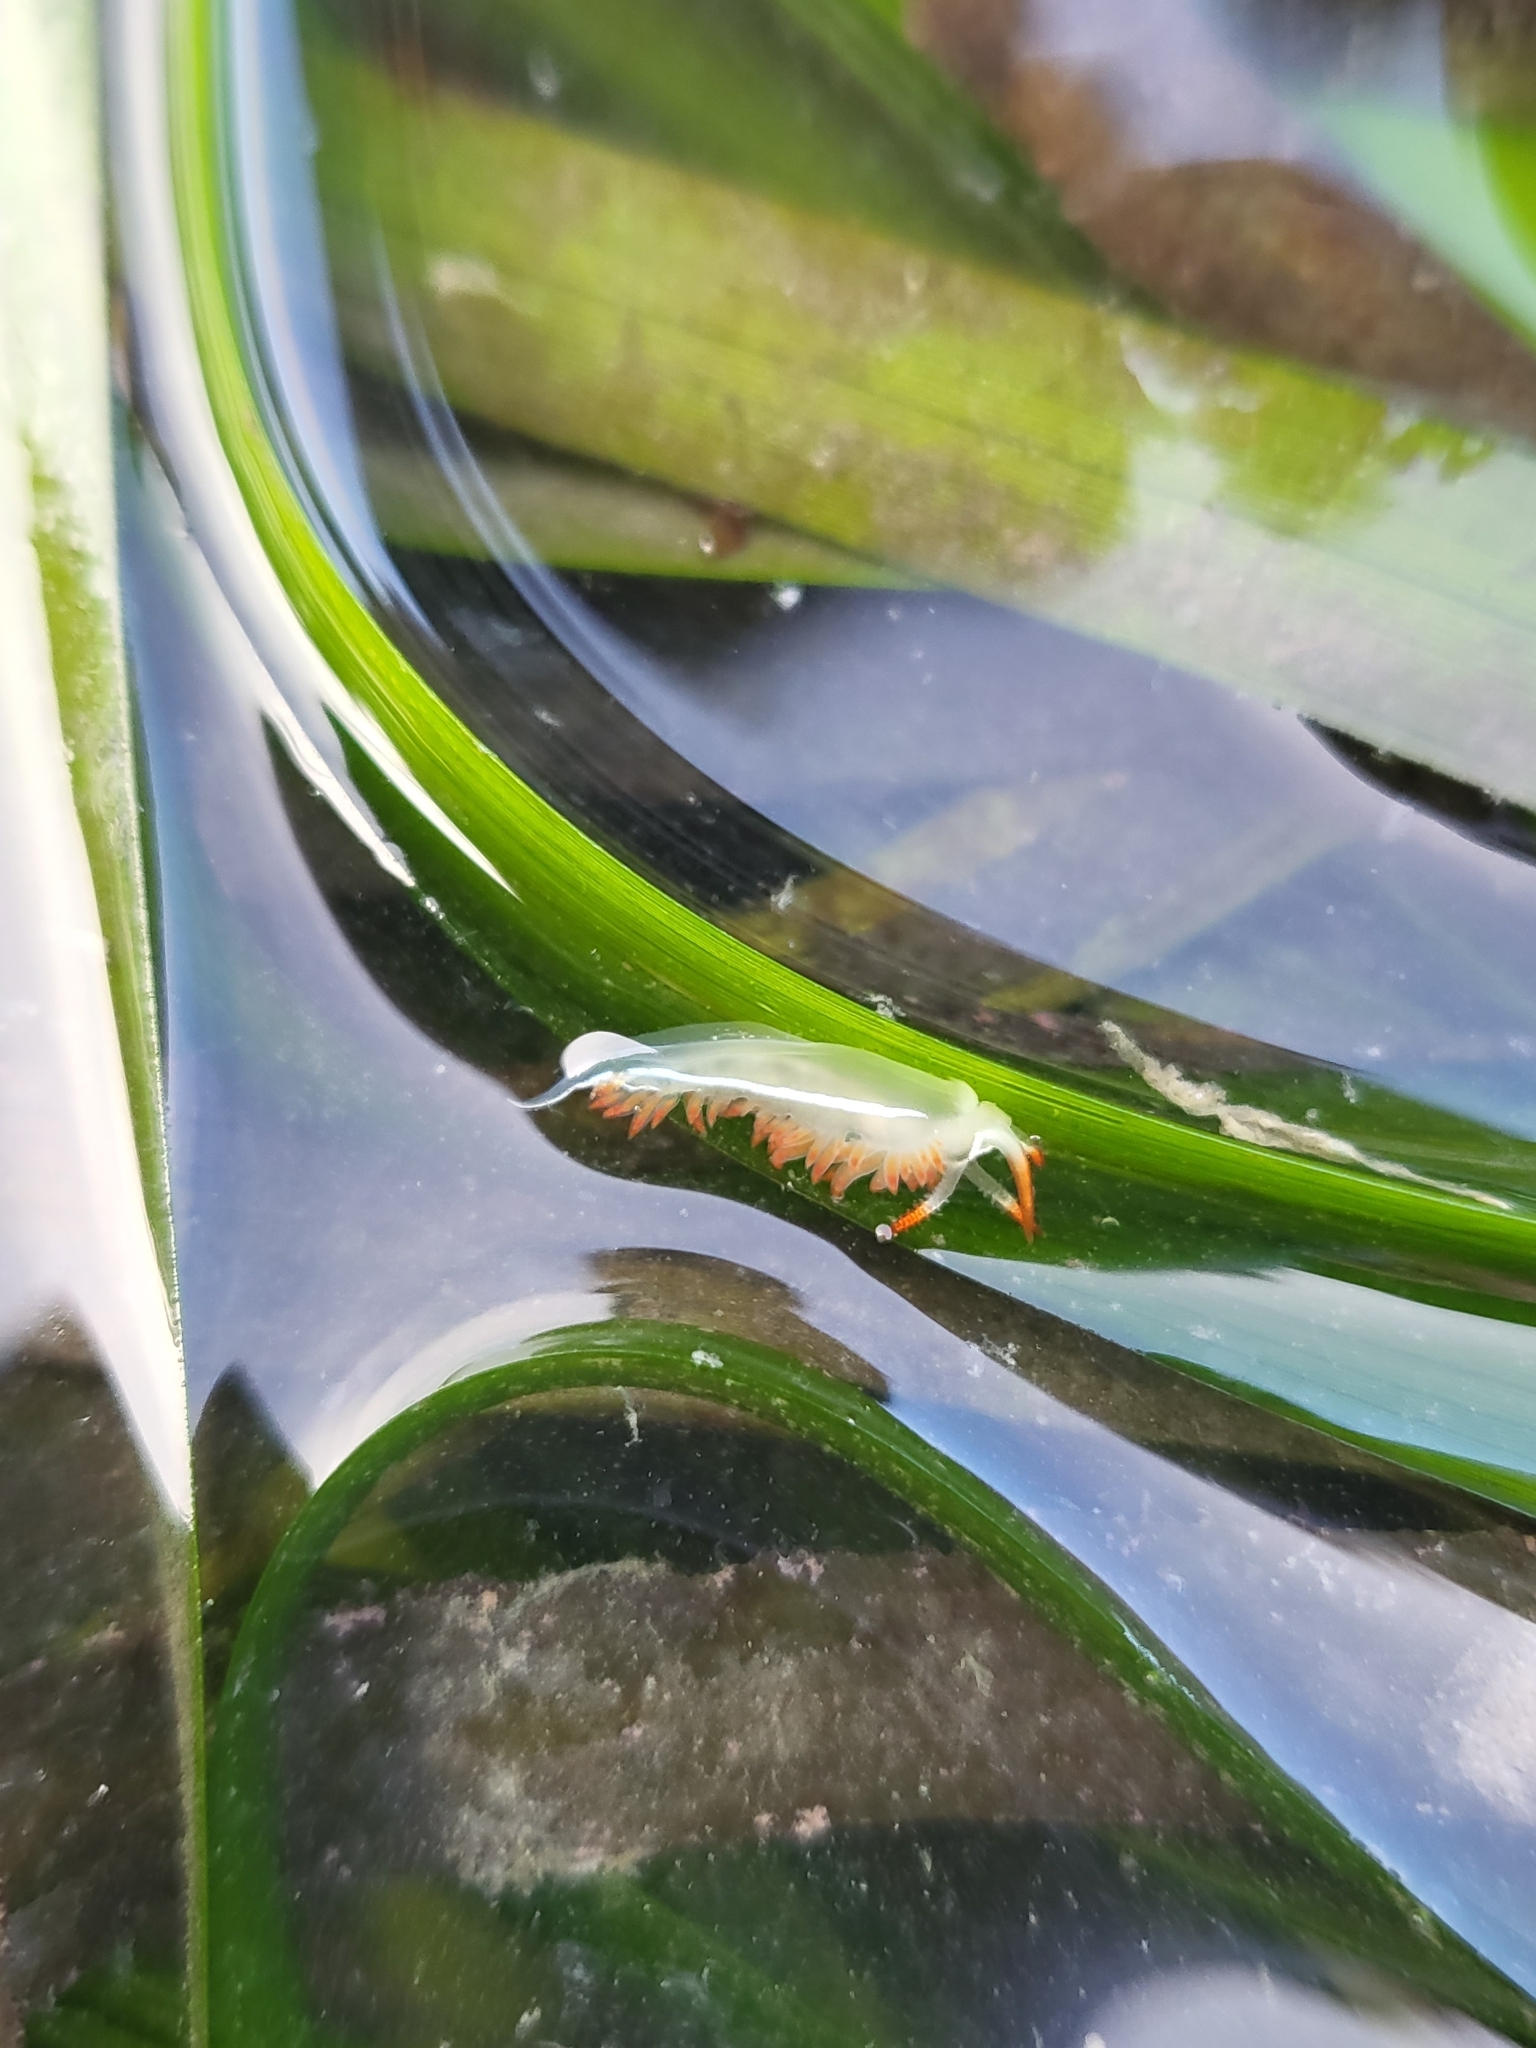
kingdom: Animalia
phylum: Mollusca
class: Gastropoda
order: Nudibranchia
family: Coryphellidae
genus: Coryphella
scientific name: Coryphella trilineata
